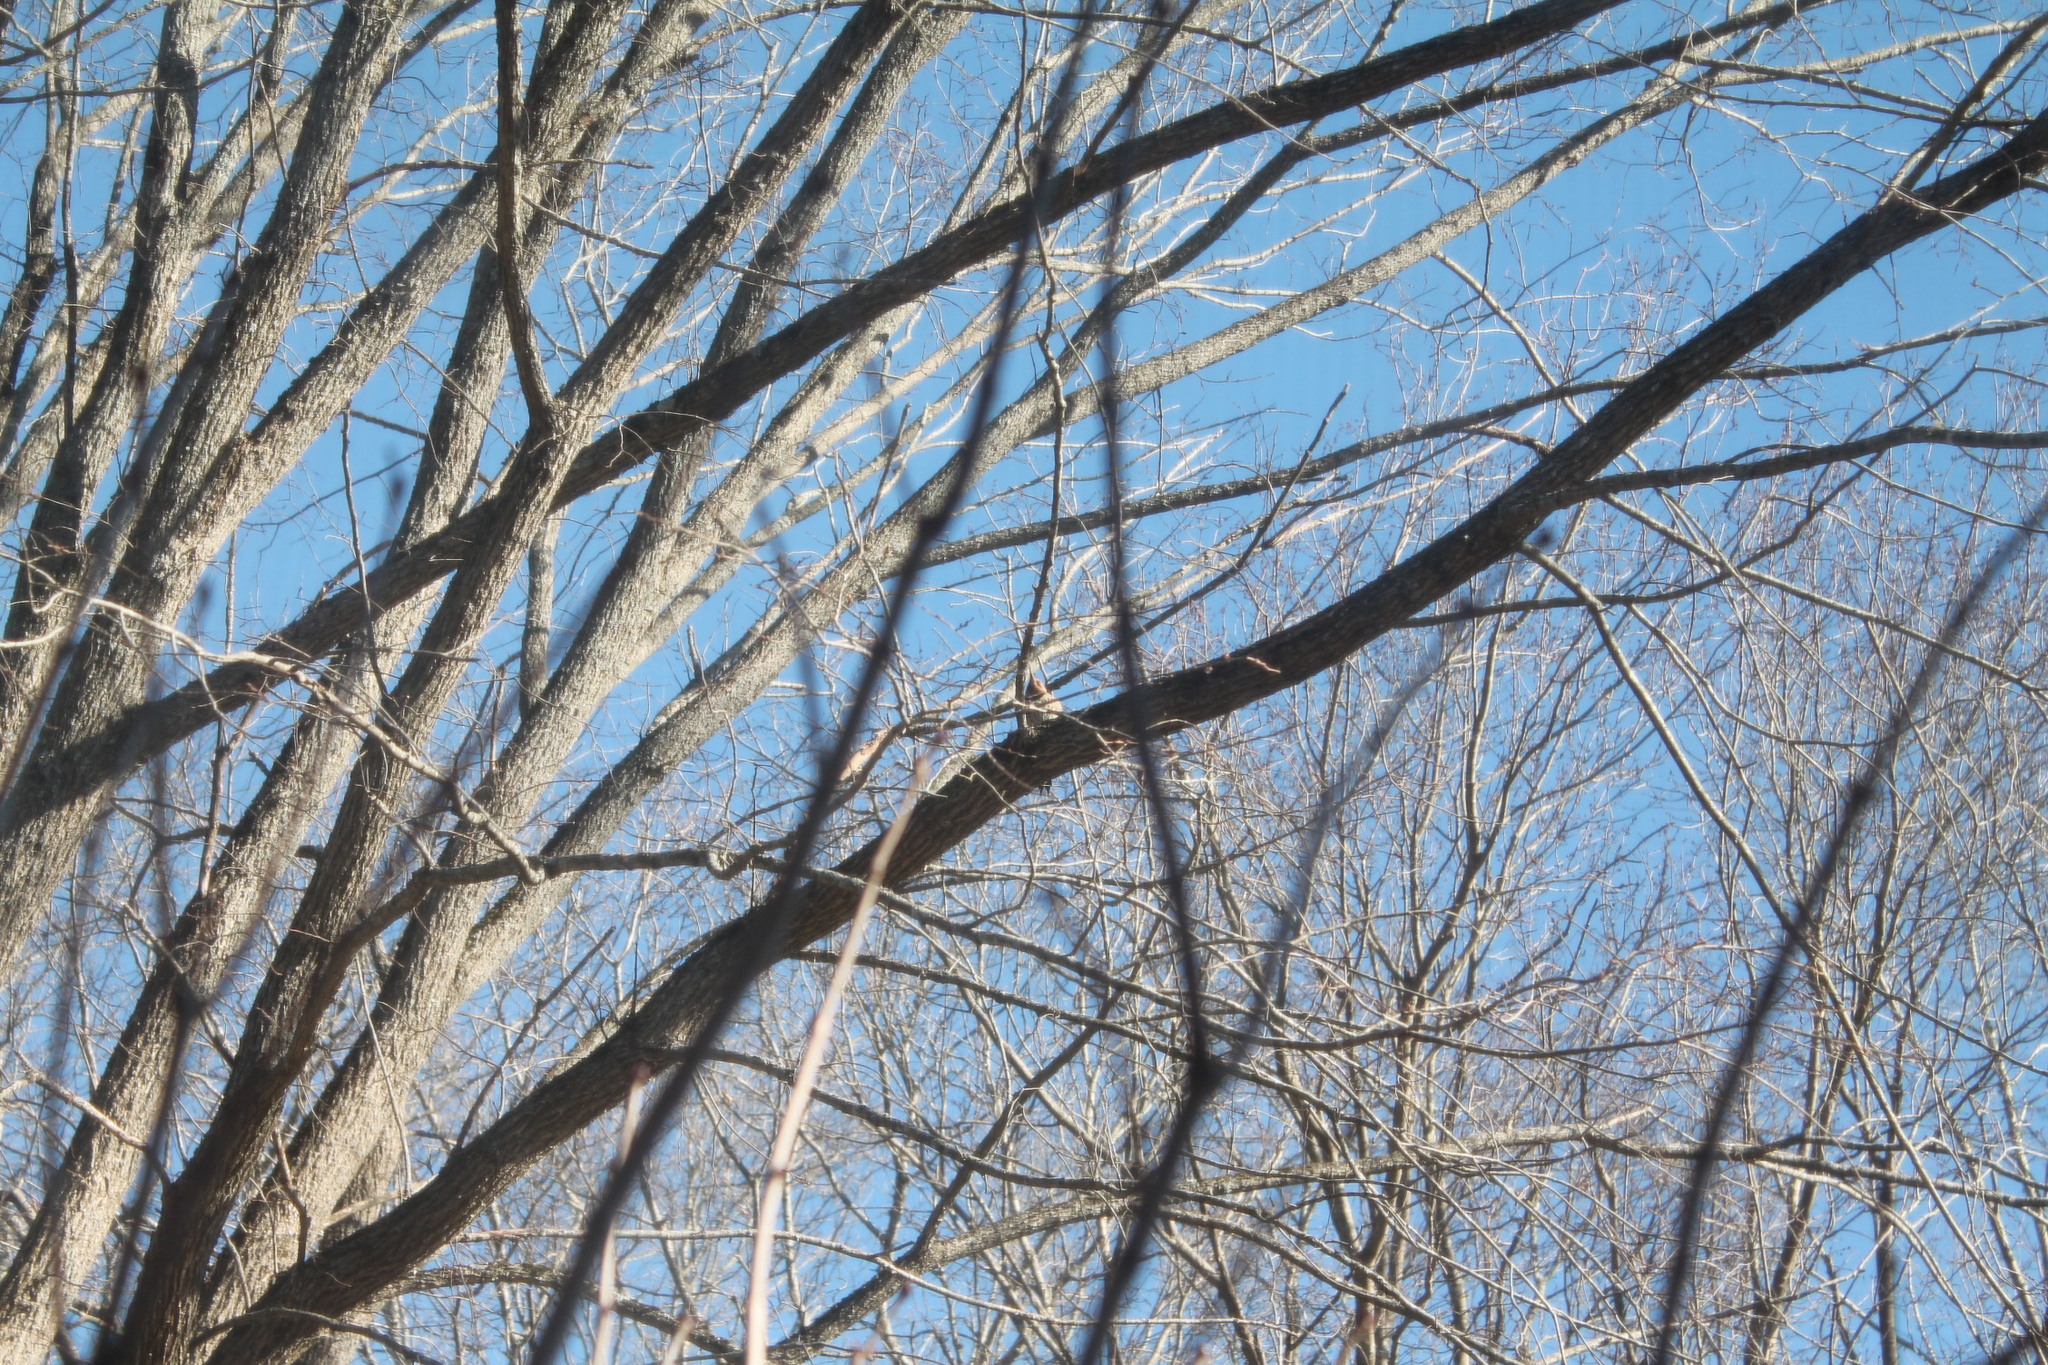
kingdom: Animalia
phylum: Chordata
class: Aves
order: Piciformes
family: Picidae
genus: Colaptes
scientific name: Colaptes auratus
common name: Northern flicker
